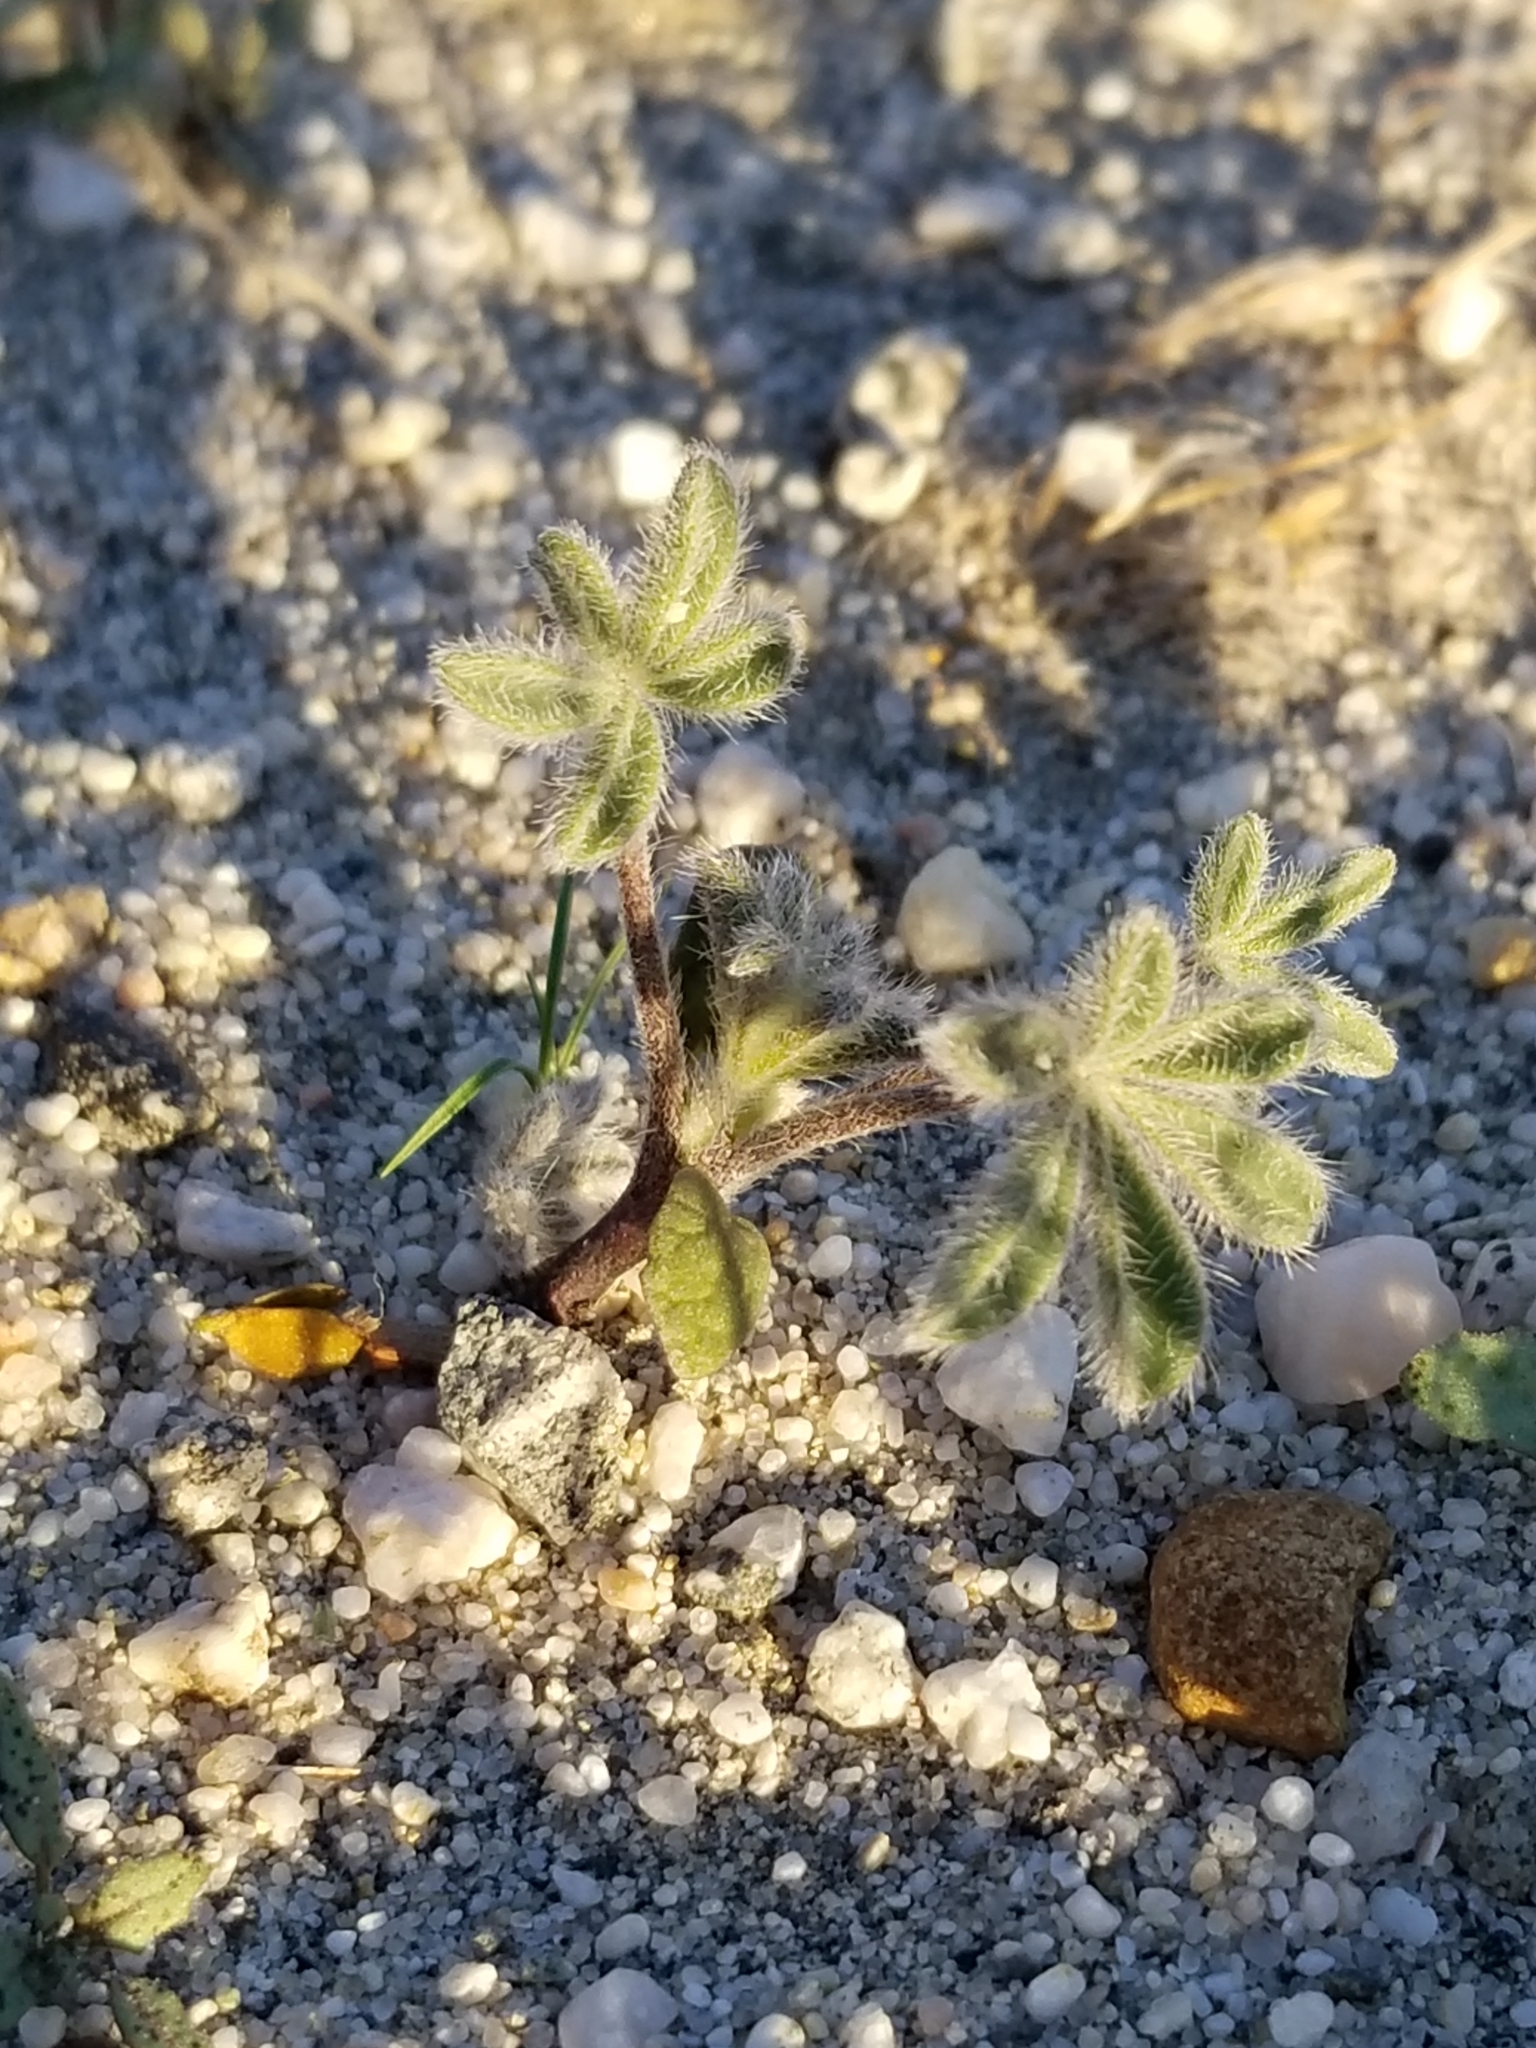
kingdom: Plantae
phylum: Tracheophyta
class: Magnoliopsida
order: Fabales
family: Fabaceae
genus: Lupinus
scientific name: Lupinus concinnus
